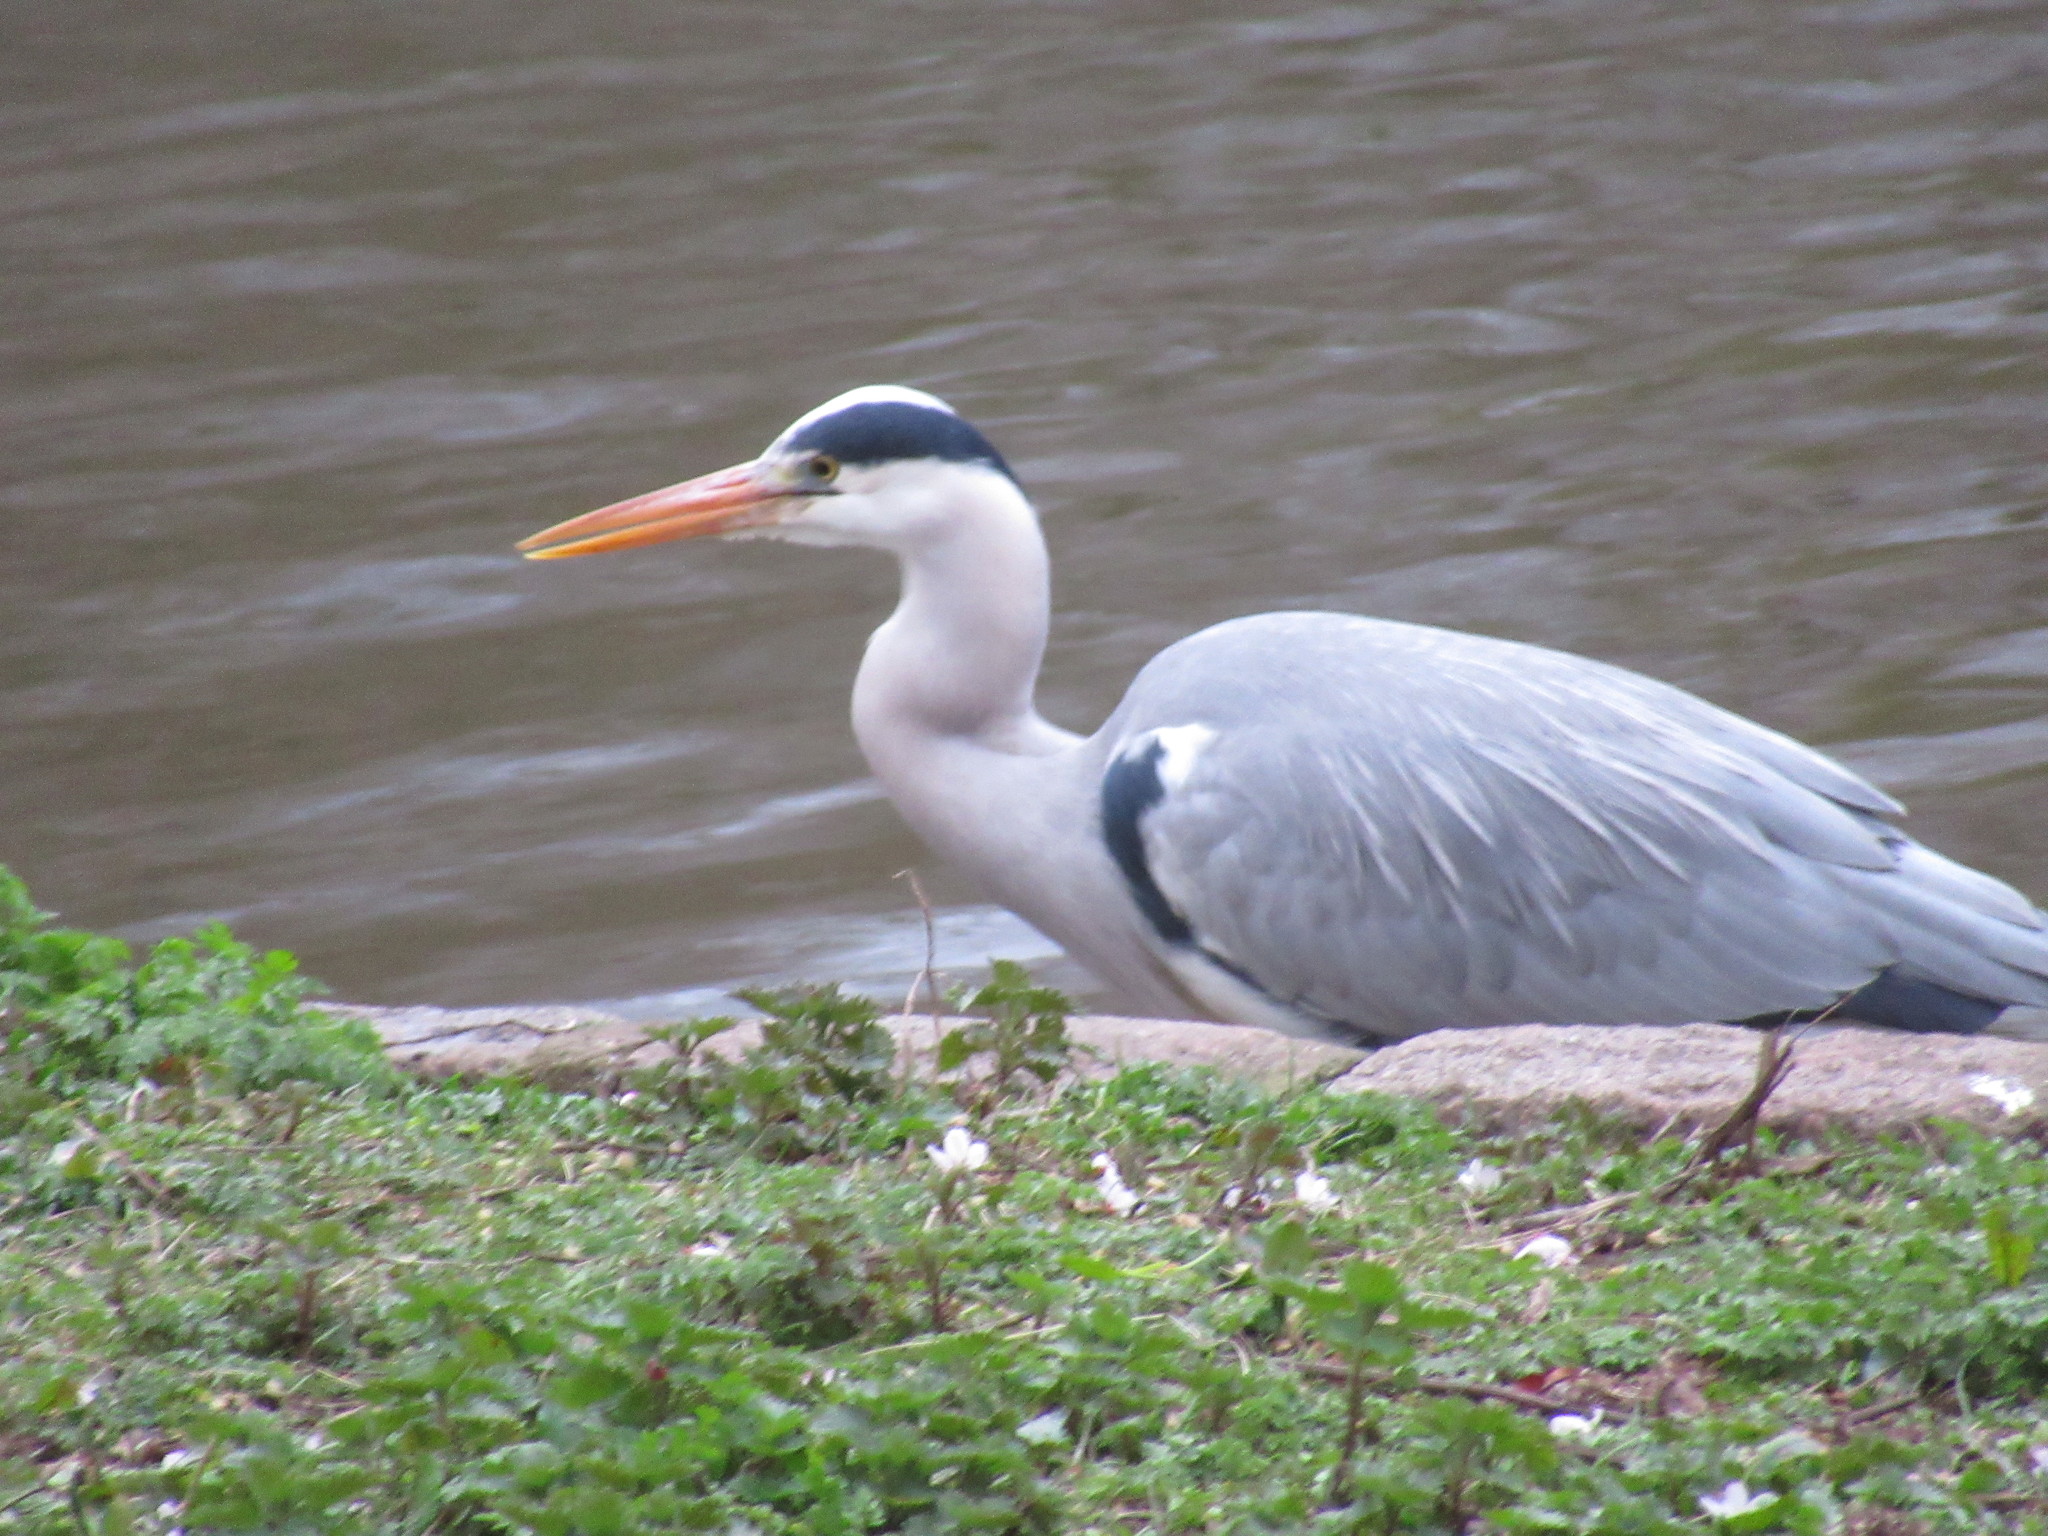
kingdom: Animalia
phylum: Chordata
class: Aves
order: Pelecaniformes
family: Ardeidae
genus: Ardea
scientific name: Ardea cinerea
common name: Grey heron
